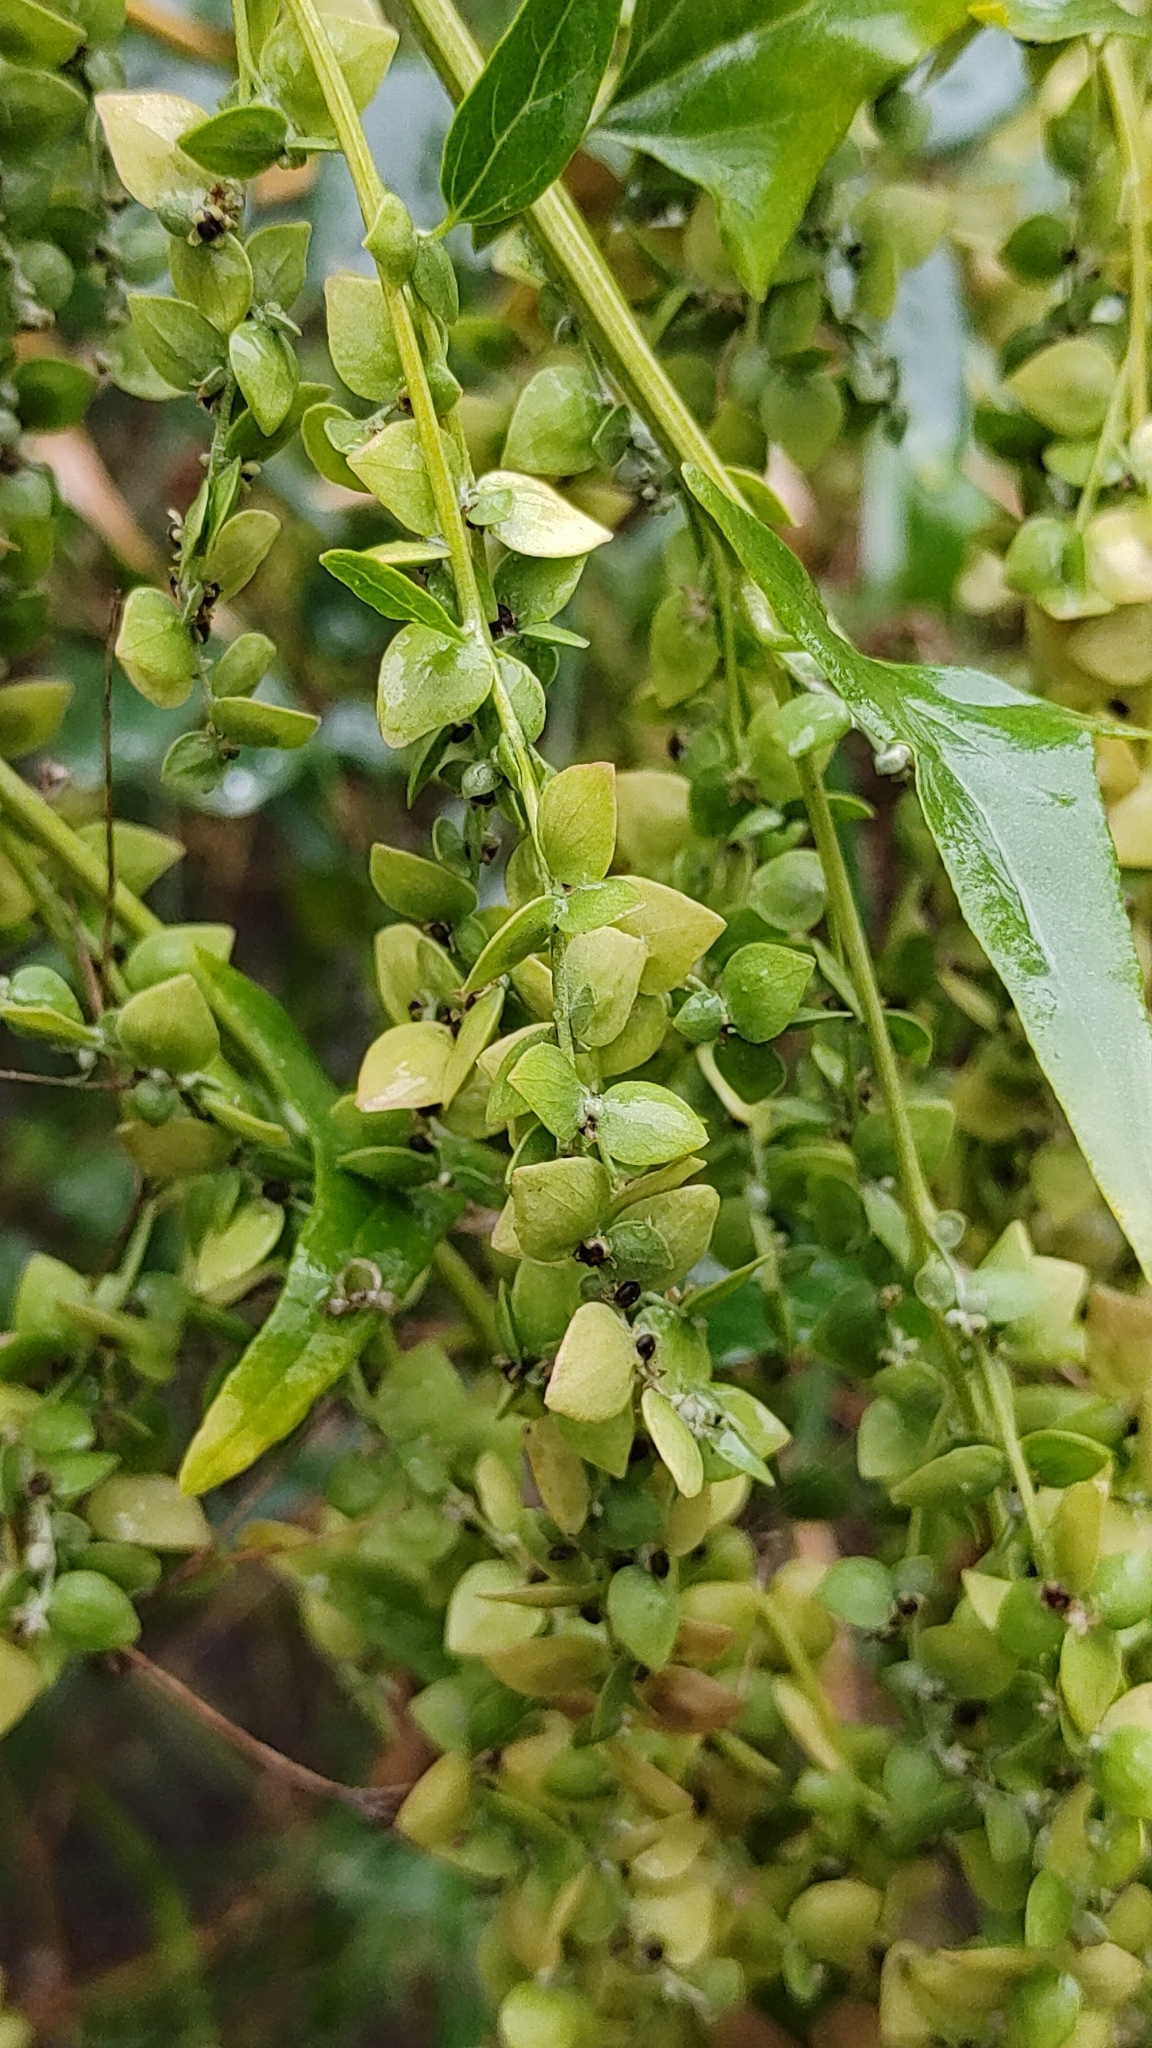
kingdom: Plantae
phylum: Tracheophyta
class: Magnoliopsida
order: Caryophyllales
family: Amaranthaceae
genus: Atriplex
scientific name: Atriplex sagittata
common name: Purple orache
